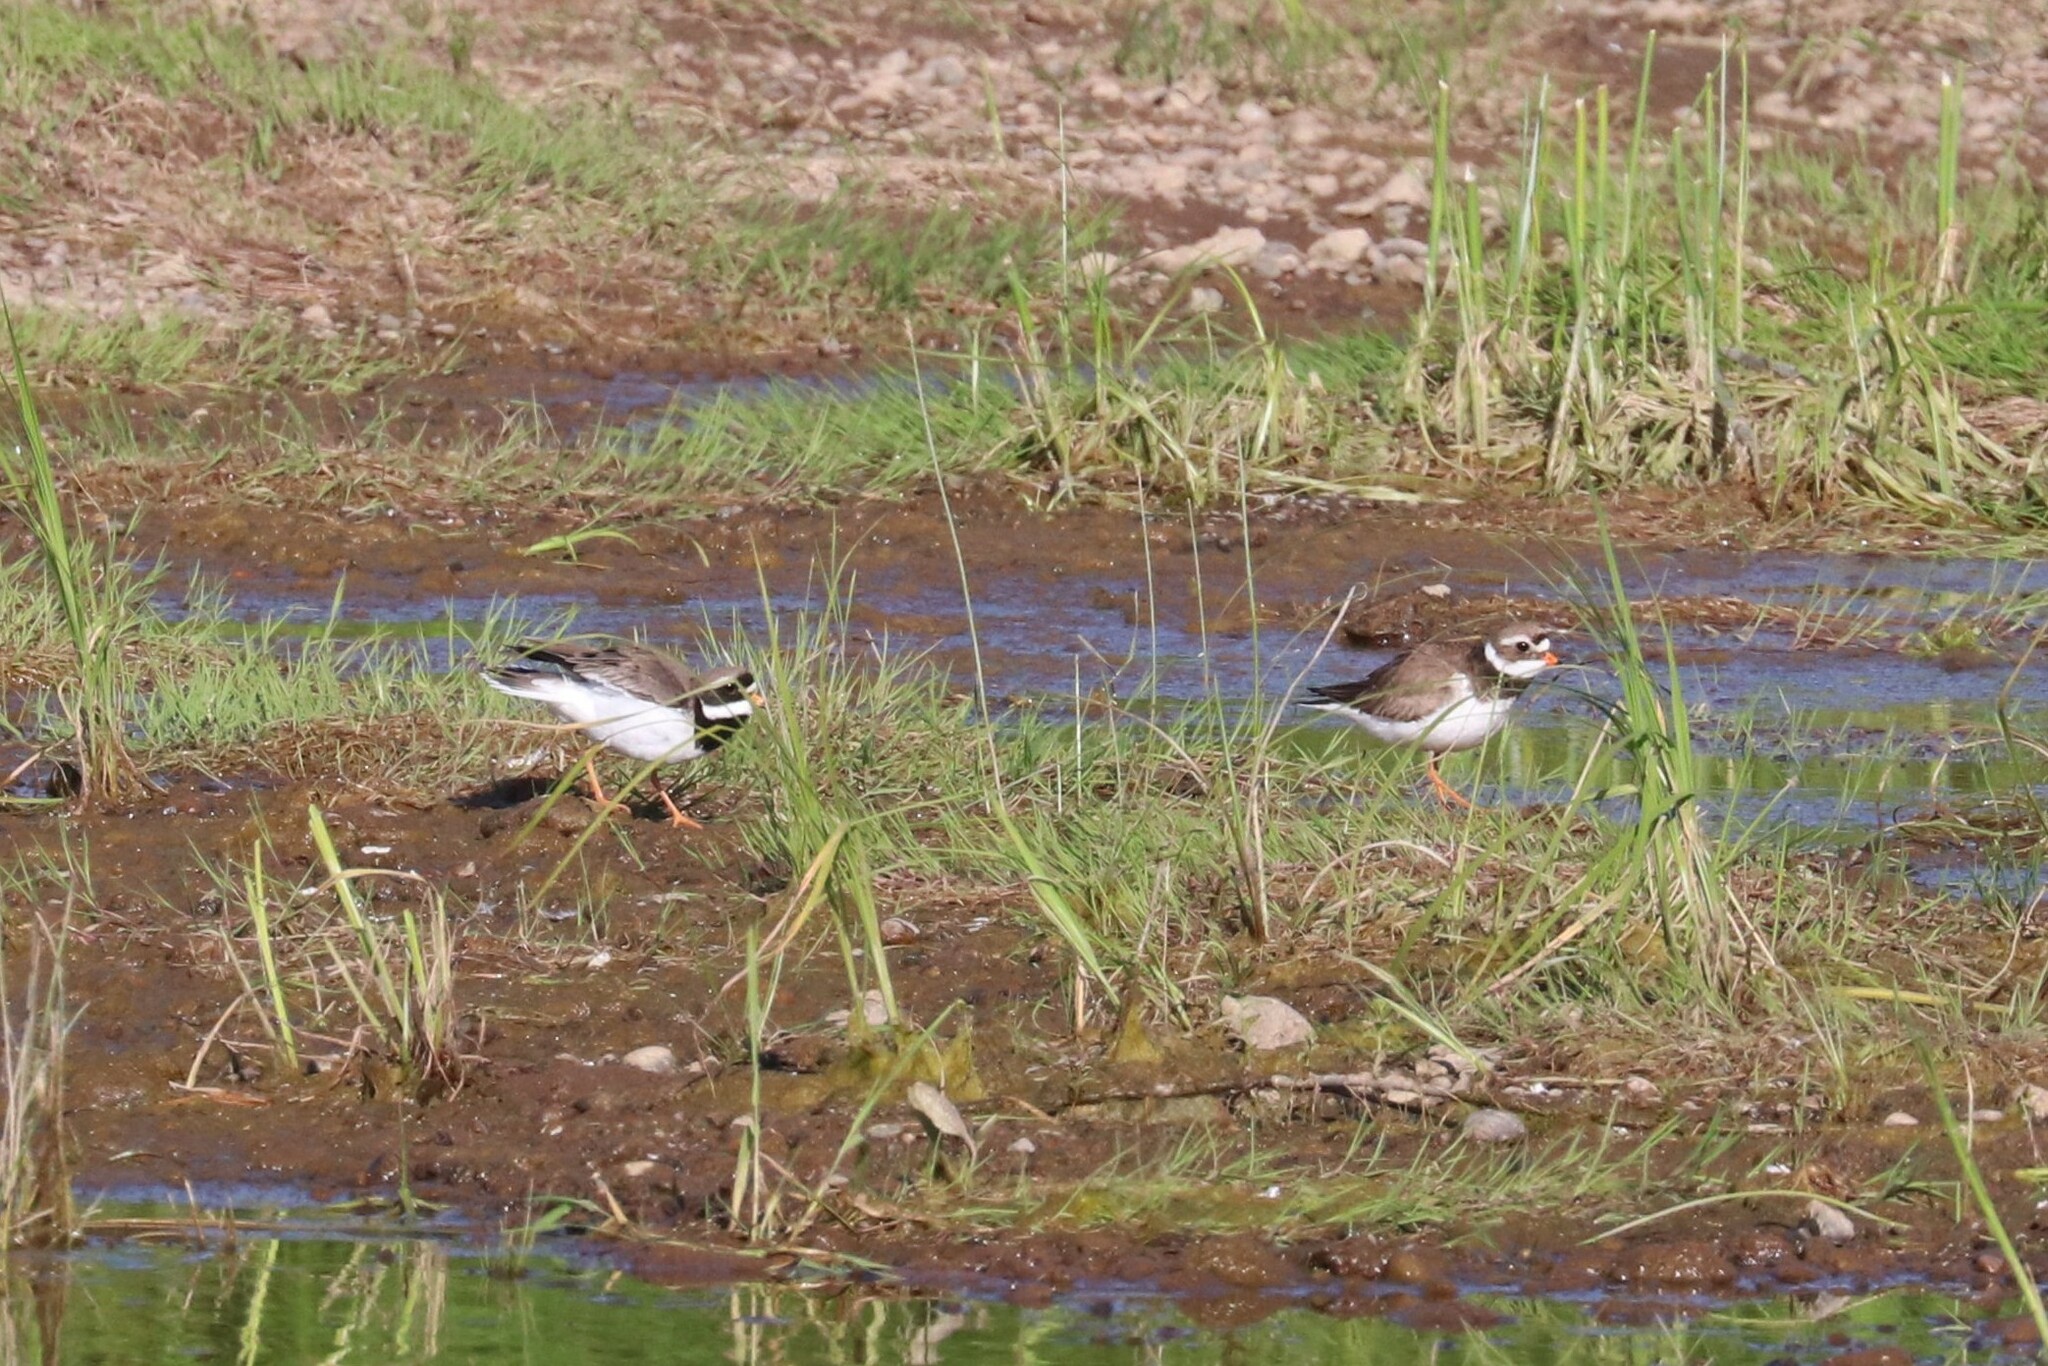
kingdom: Animalia
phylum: Chordata
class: Aves
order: Charadriiformes
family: Charadriidae
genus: Charadrius
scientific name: Charadrius hiaticula
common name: Common ringed plover
